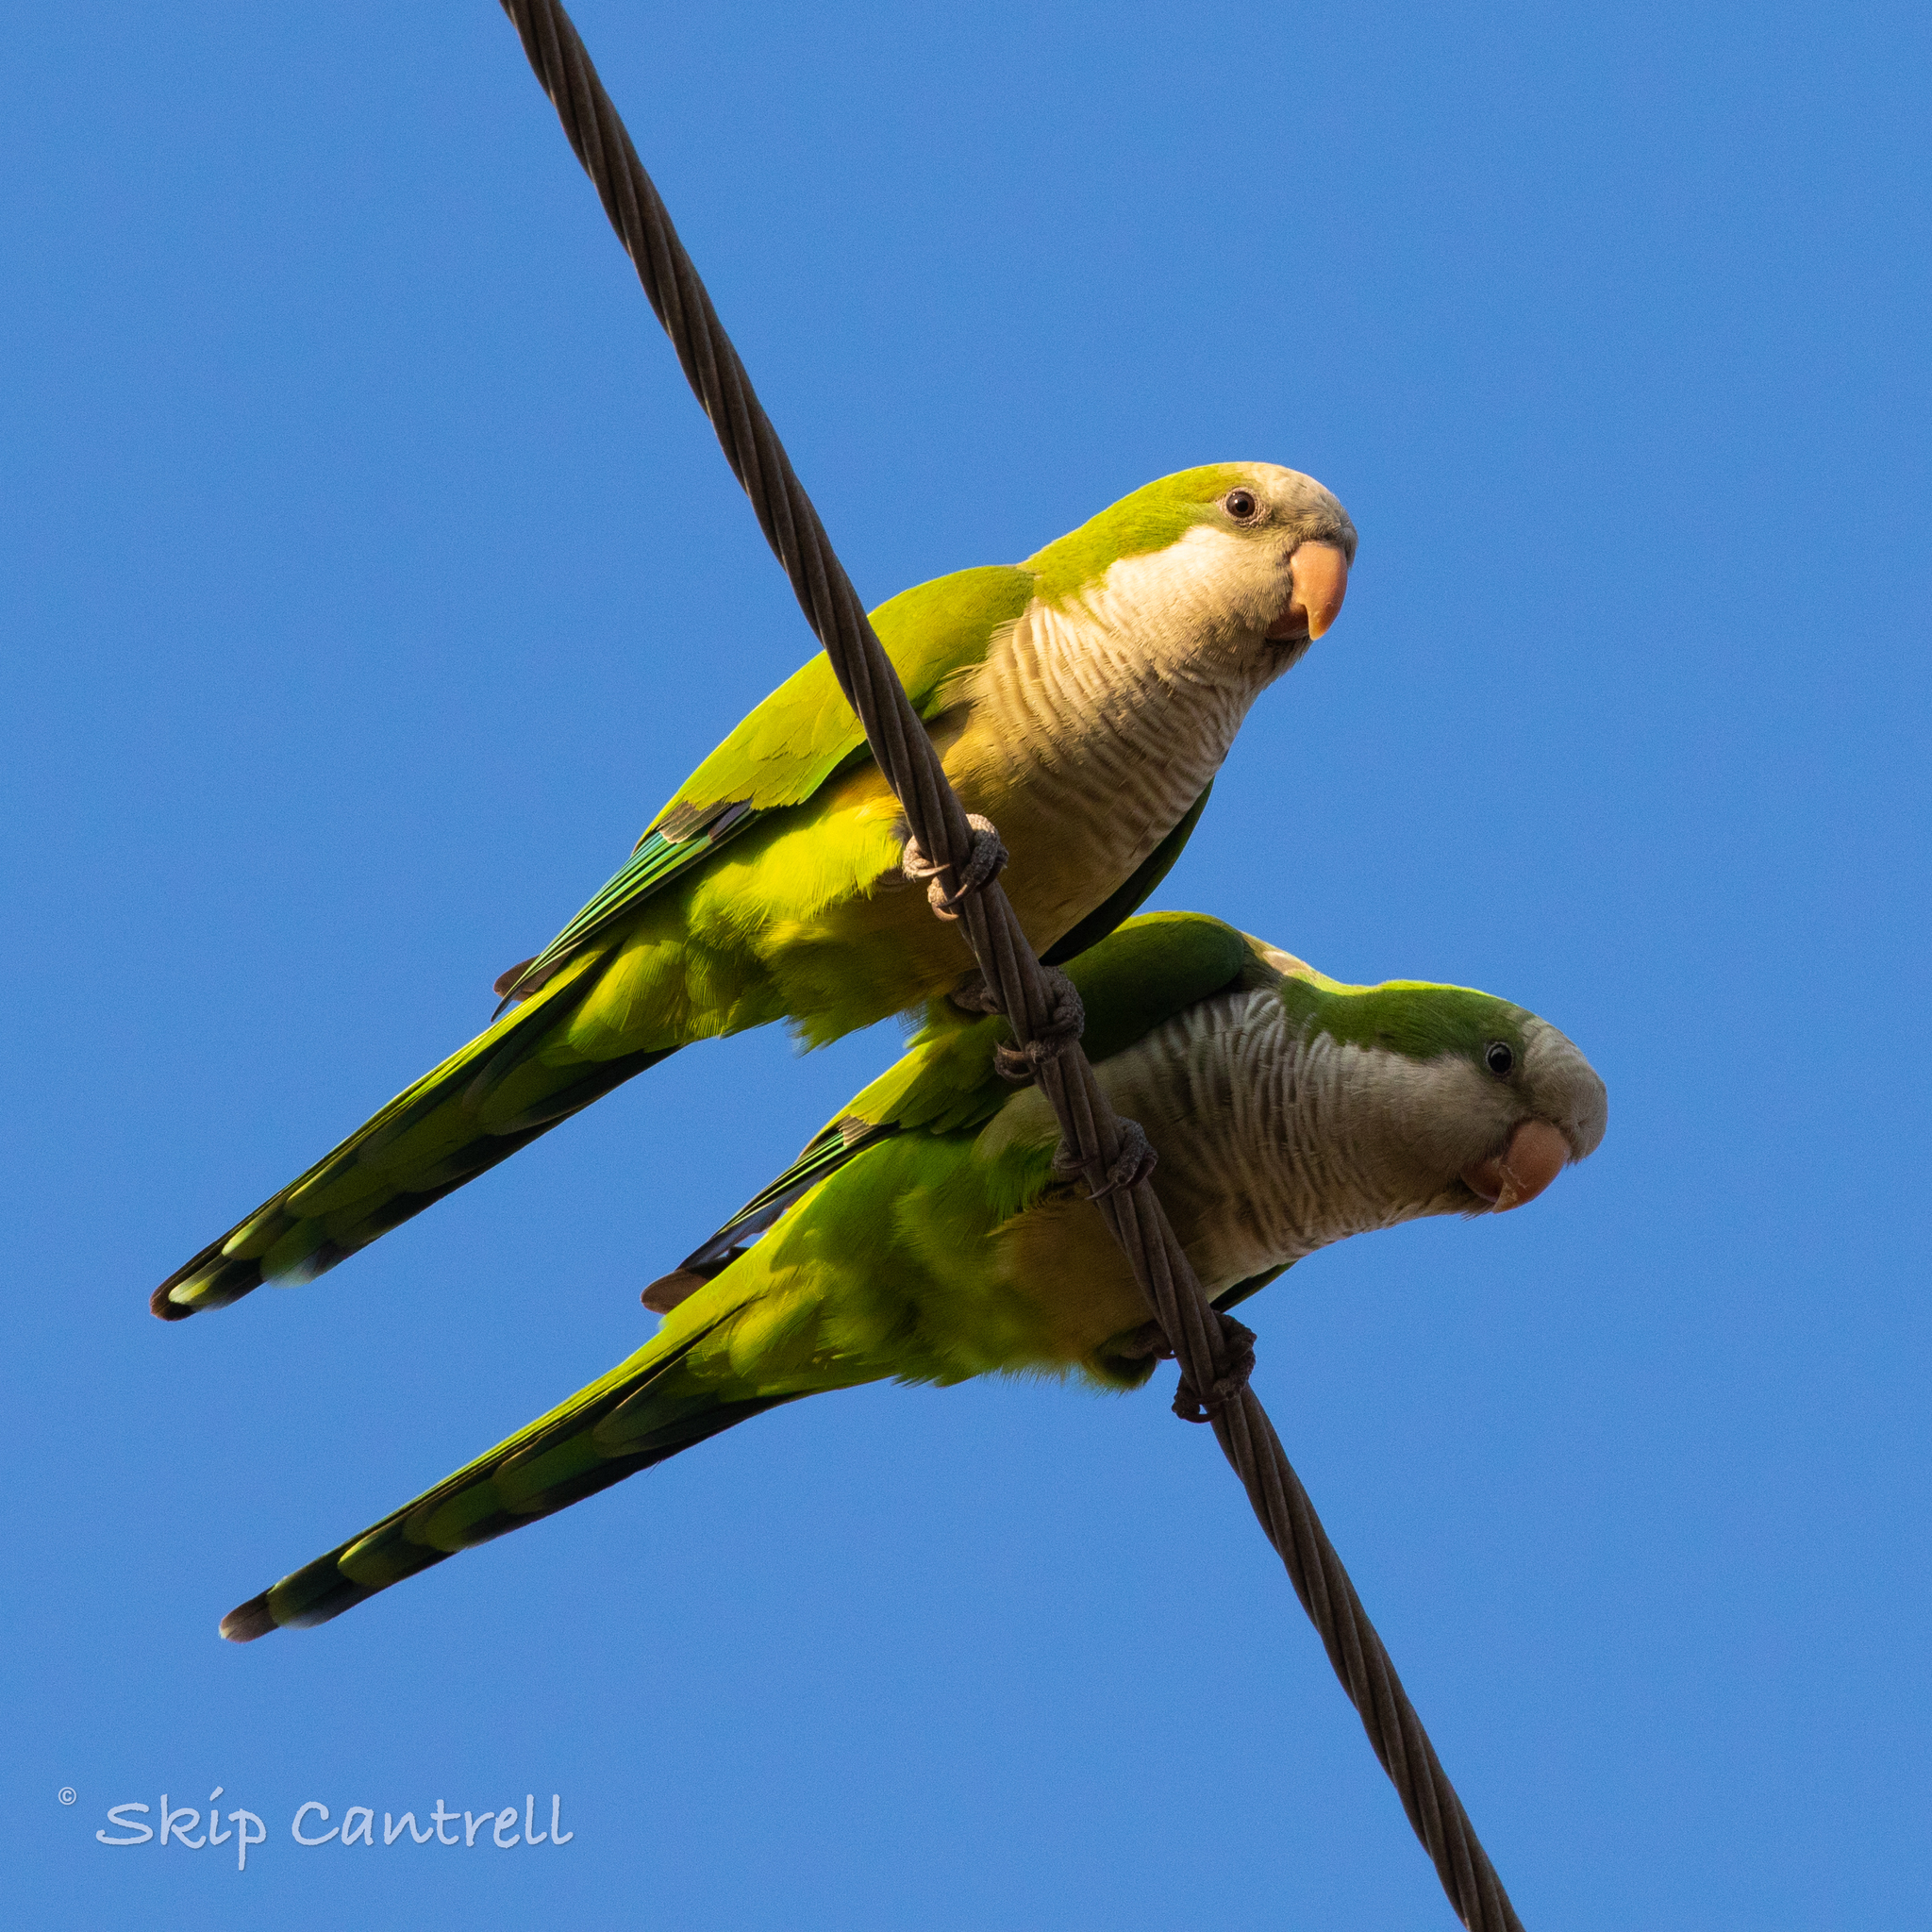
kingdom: Animalia
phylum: Chordata
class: Aves
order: Psittaciformes
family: Psittacidae
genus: Myiopsitta
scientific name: Myiopsitta monachus
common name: Monk parakeet
